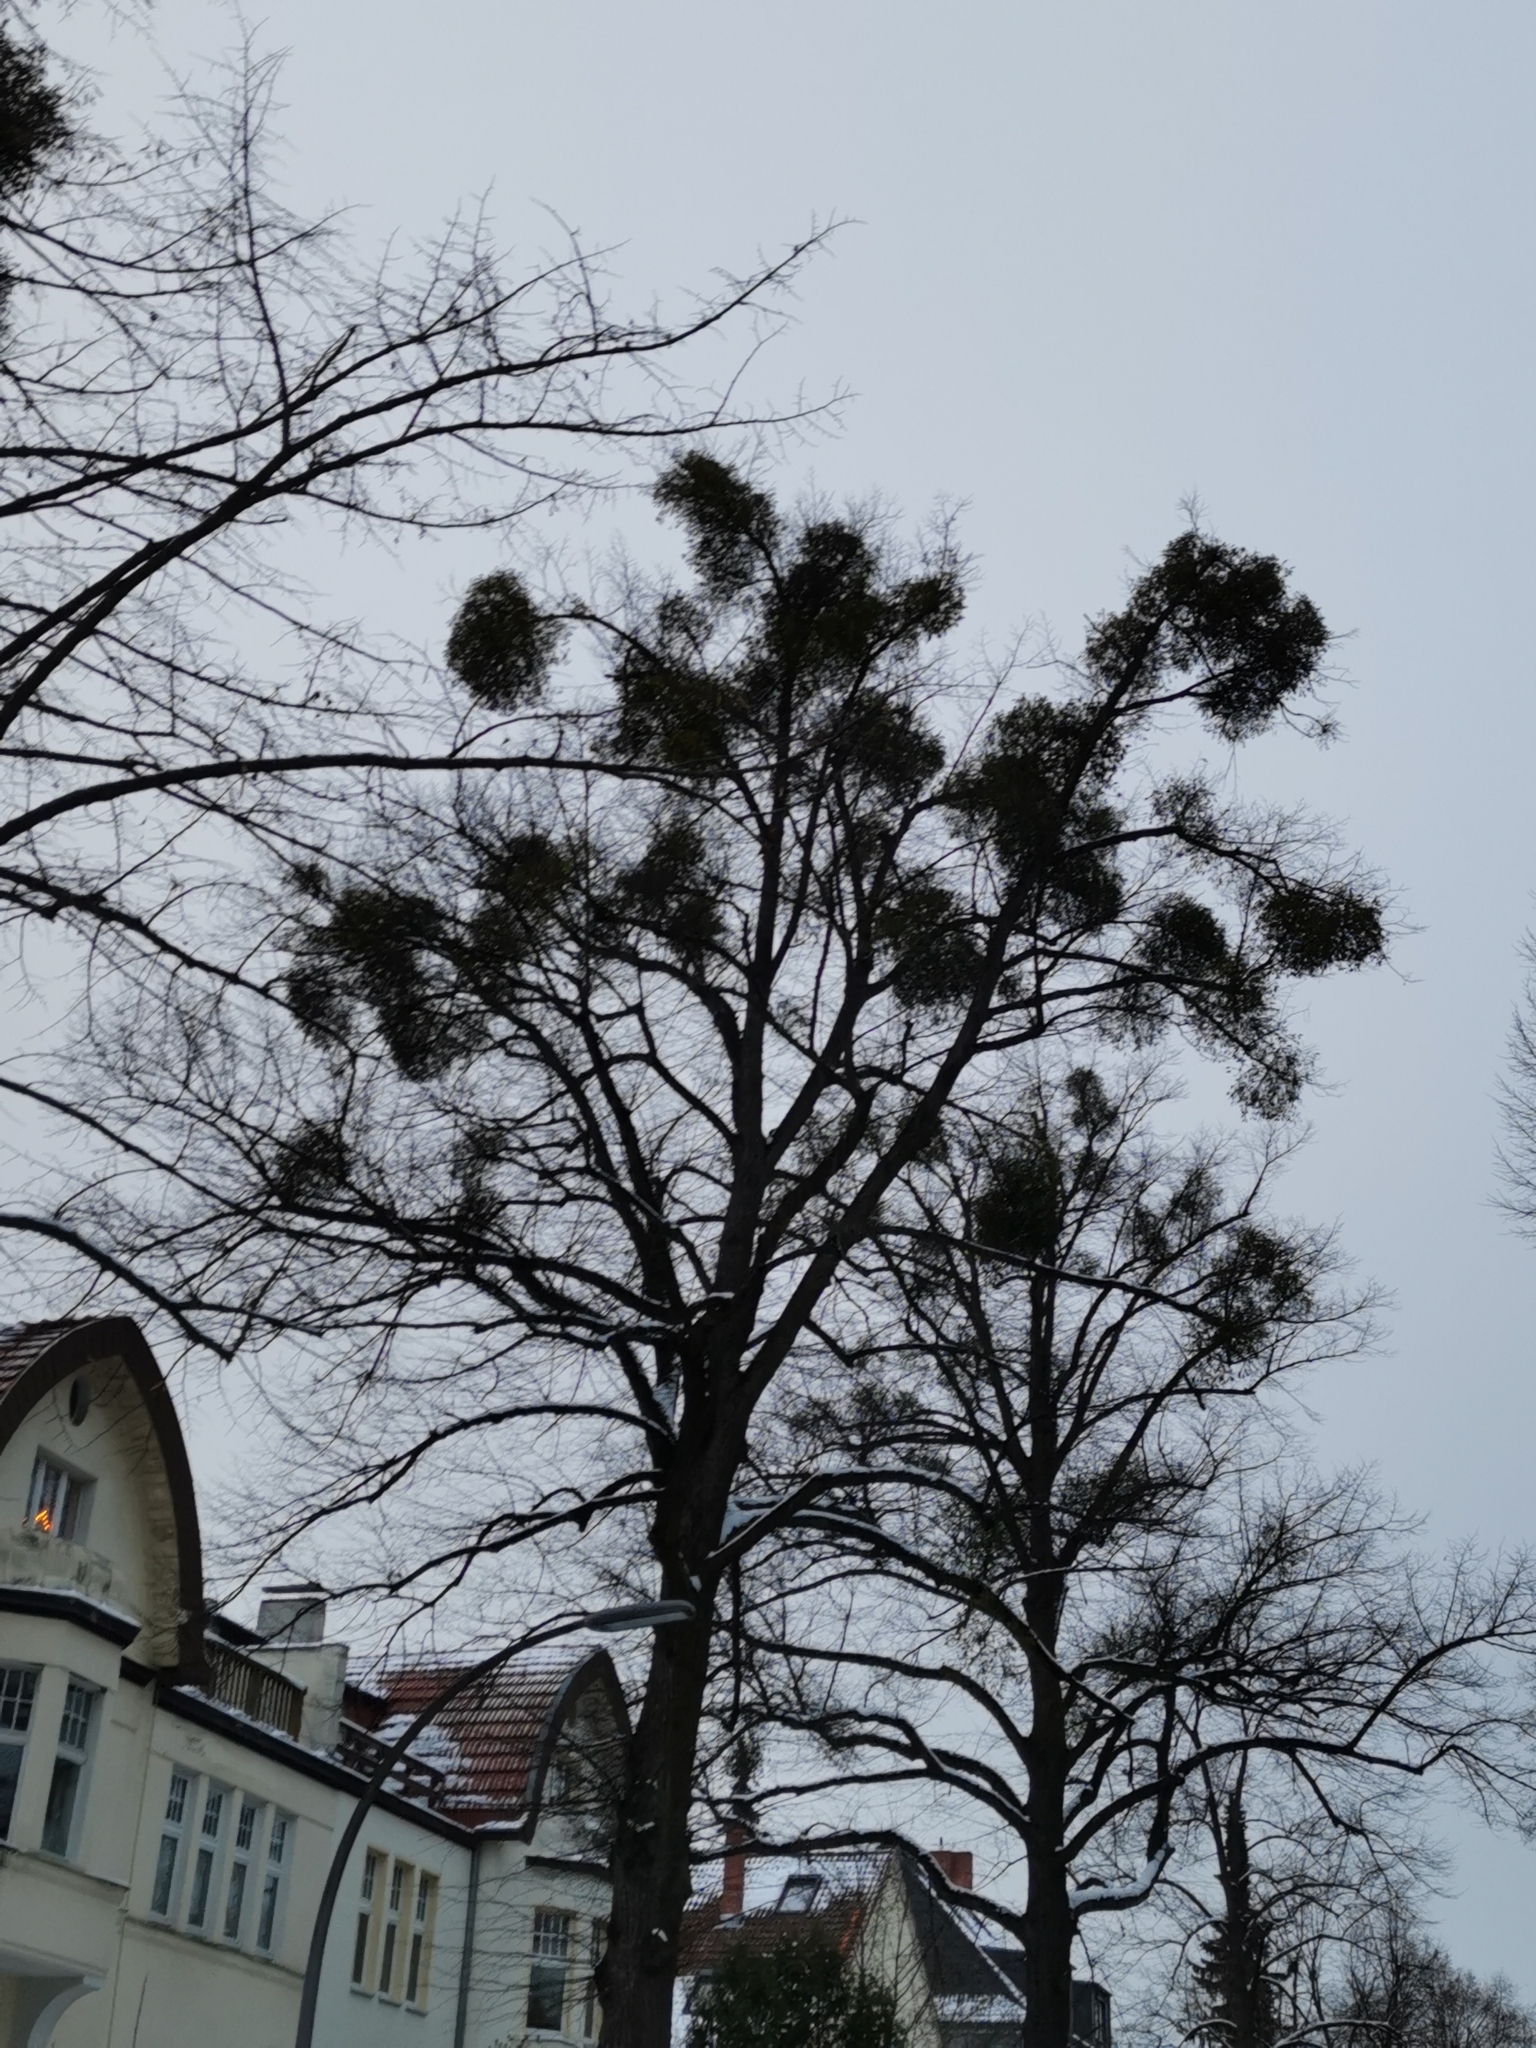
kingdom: Plantae
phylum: Tracheophyta
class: Magnoliopsida
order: Santalales
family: Viscaceae
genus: Viscum
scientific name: Viscum album
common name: Mistletoe
